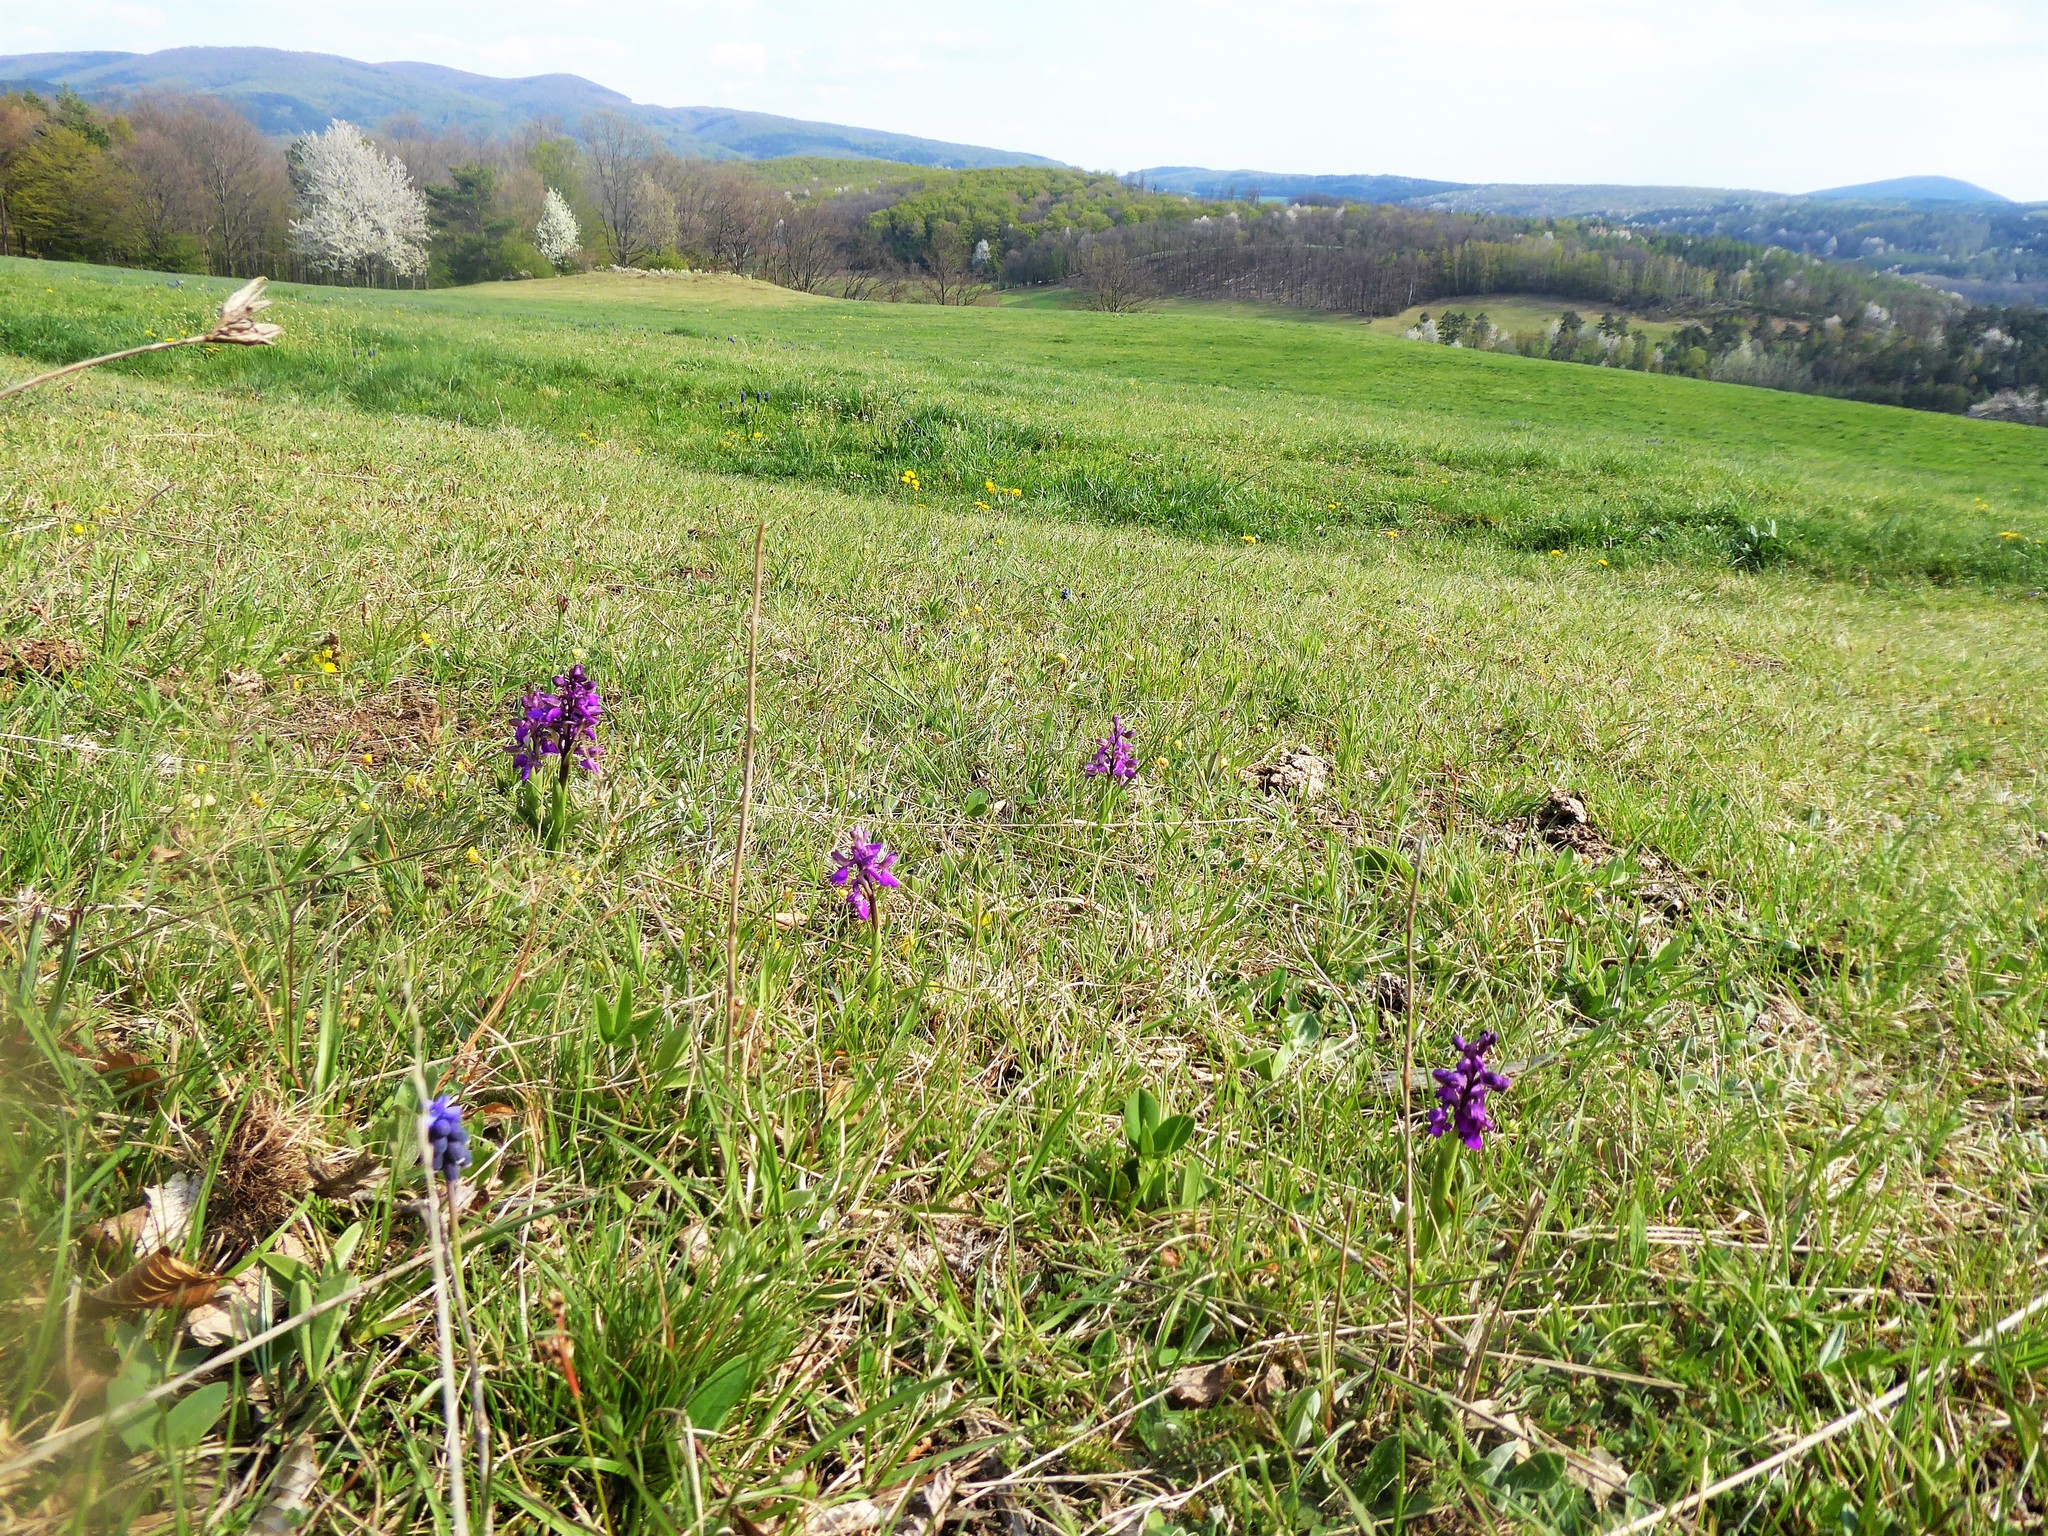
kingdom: Plantae
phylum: Tracheophyta
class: Liliopsida
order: Asparagales
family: Orchidaceae
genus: Anacamptis
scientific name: Anacamptis morio
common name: Green-winged orchid
